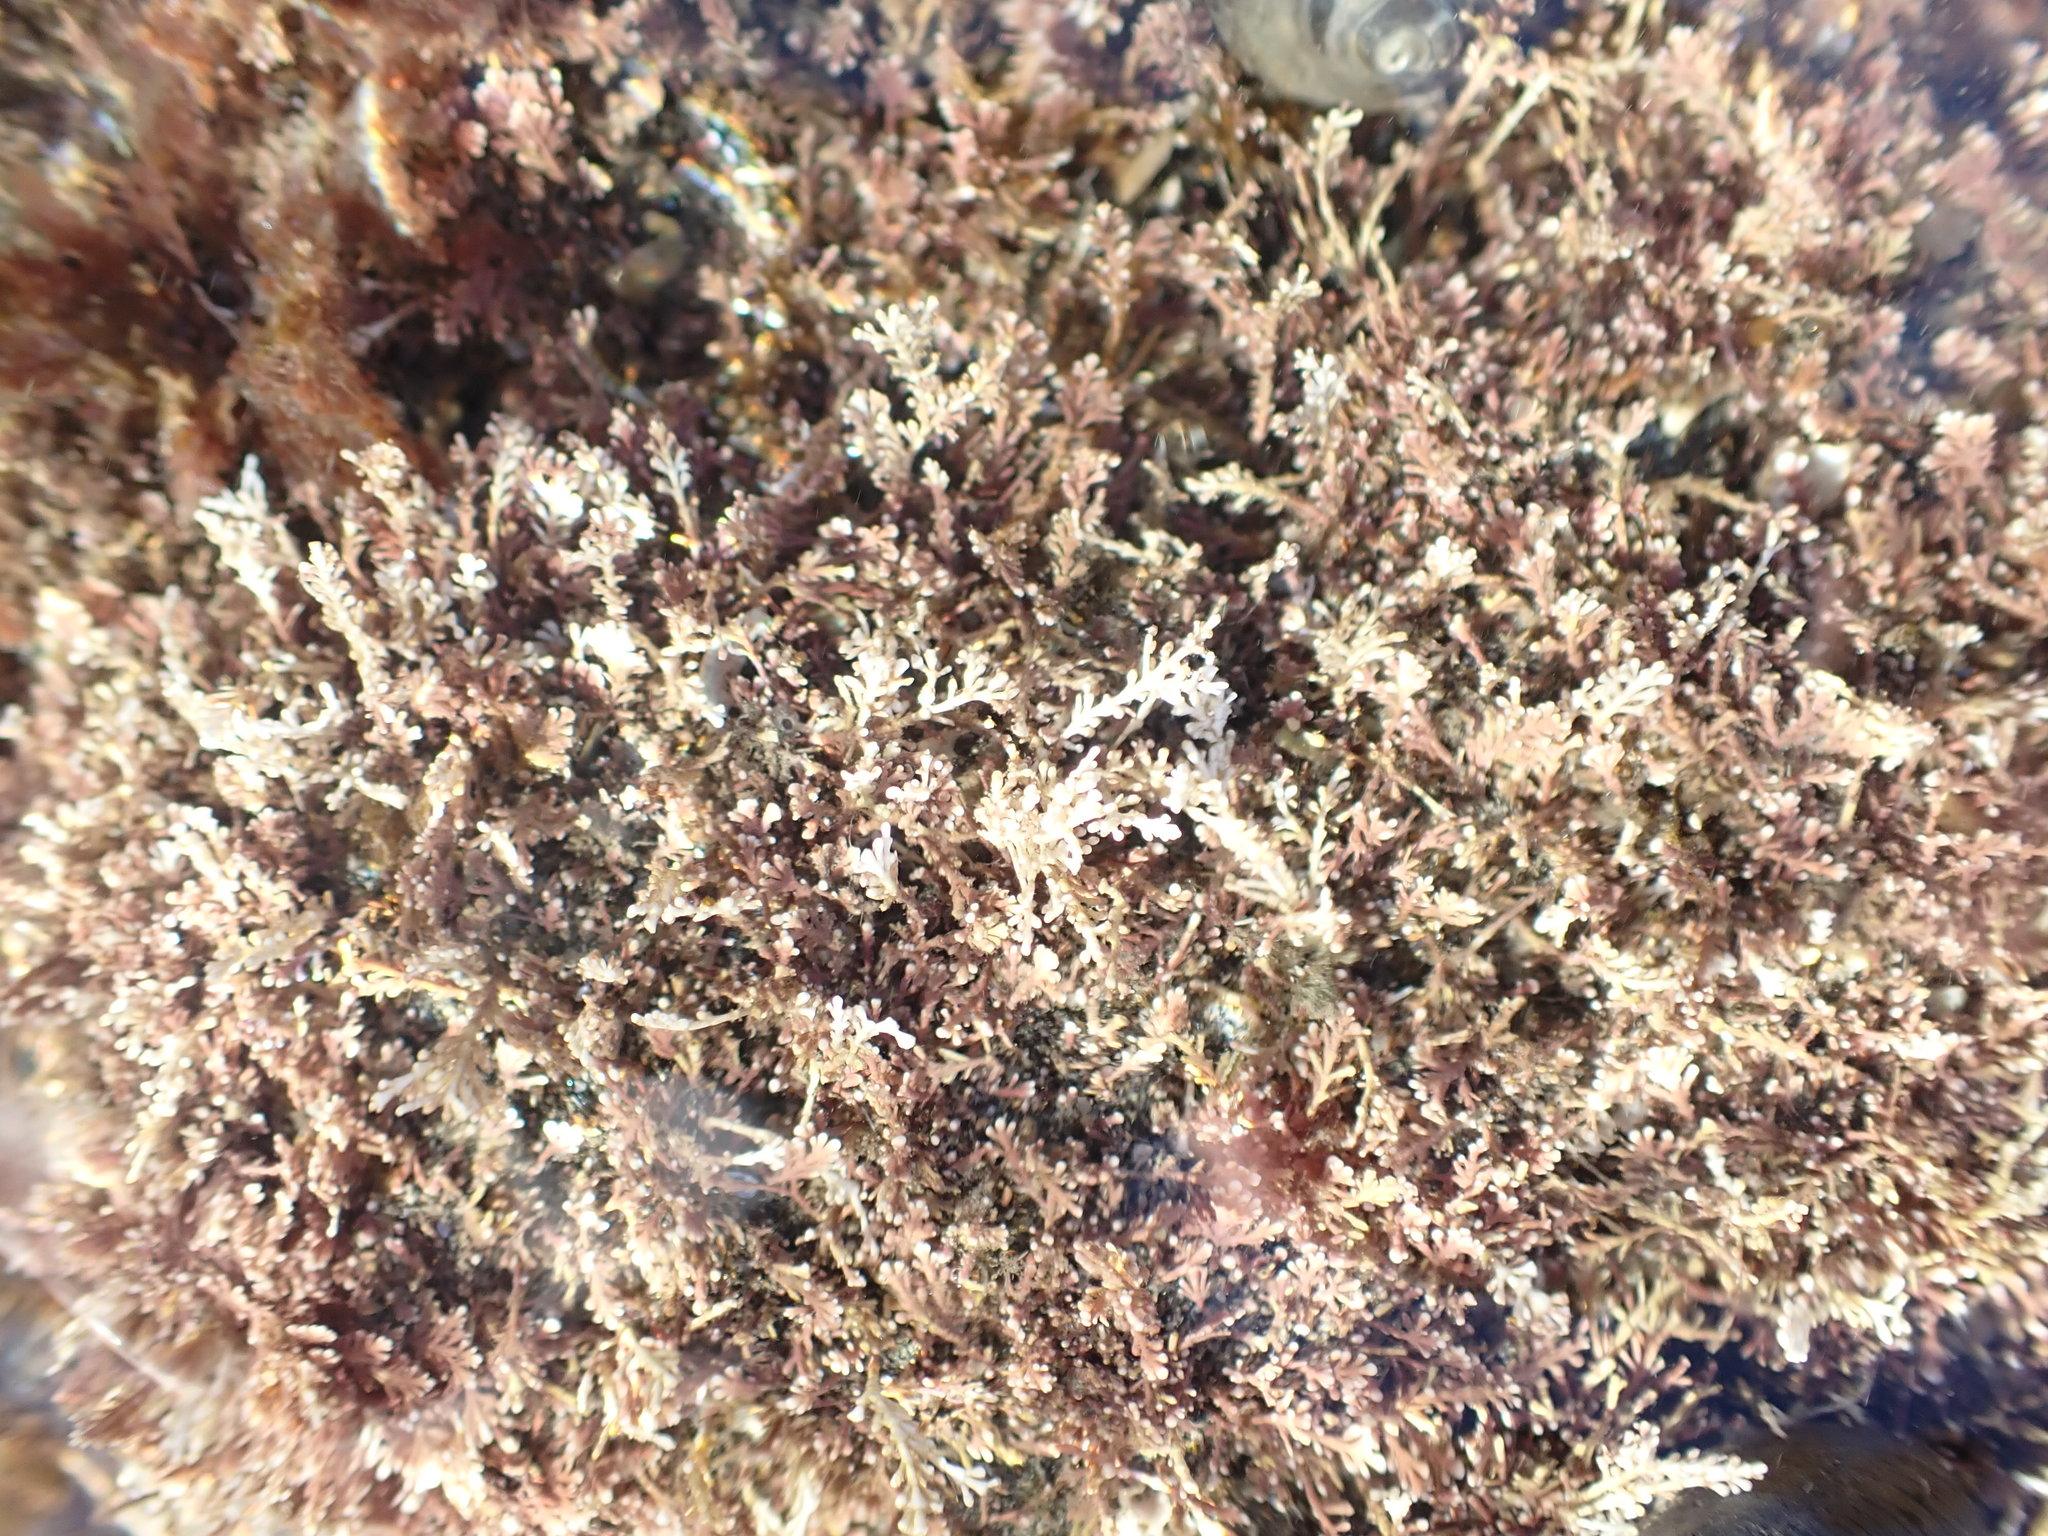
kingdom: Plantae
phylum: Rhodophyta
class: Florideophyceae
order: Corallinales
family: Corallinaceae
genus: Corallina
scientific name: Corallina officinalis
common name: Coral weed
